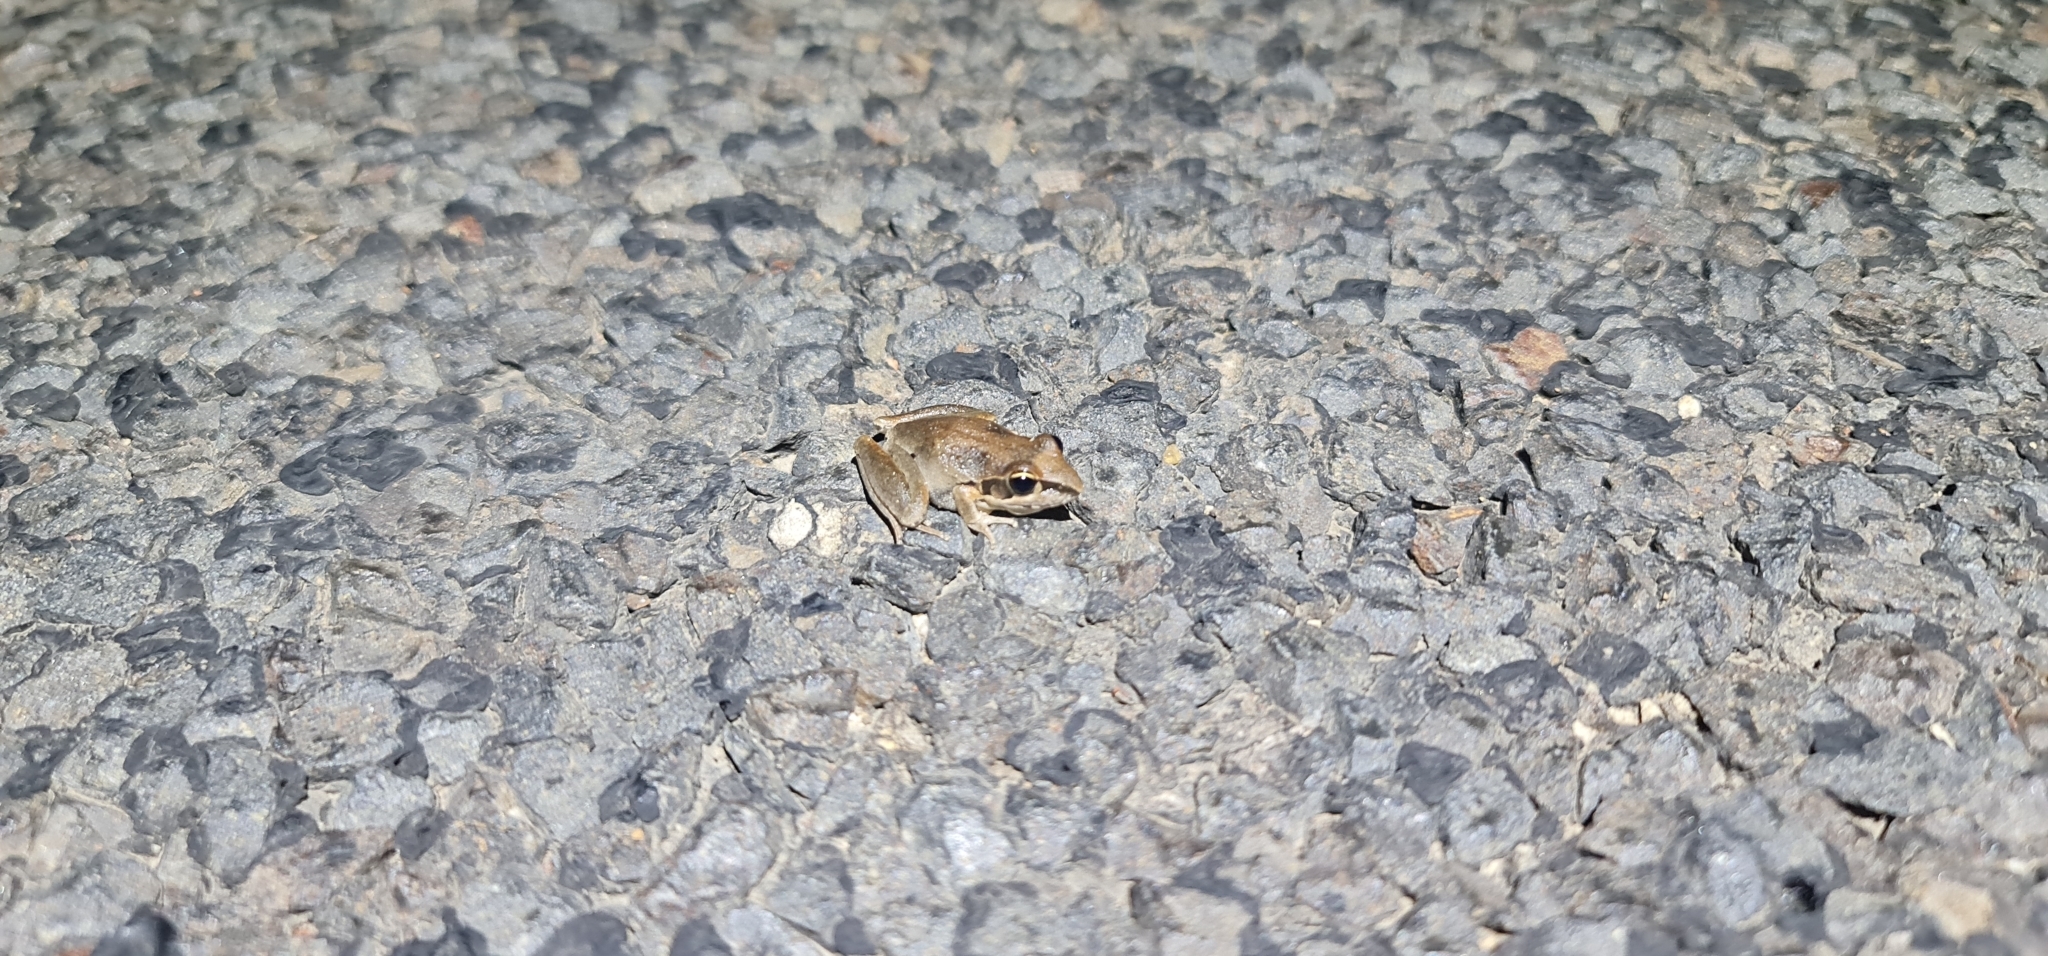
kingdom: Animalia
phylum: Chordata
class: Amphibia
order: Anura
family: Pelodryadidae
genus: Litoria
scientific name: Litoria latopalmata
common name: Broad-palmed rocket frog
